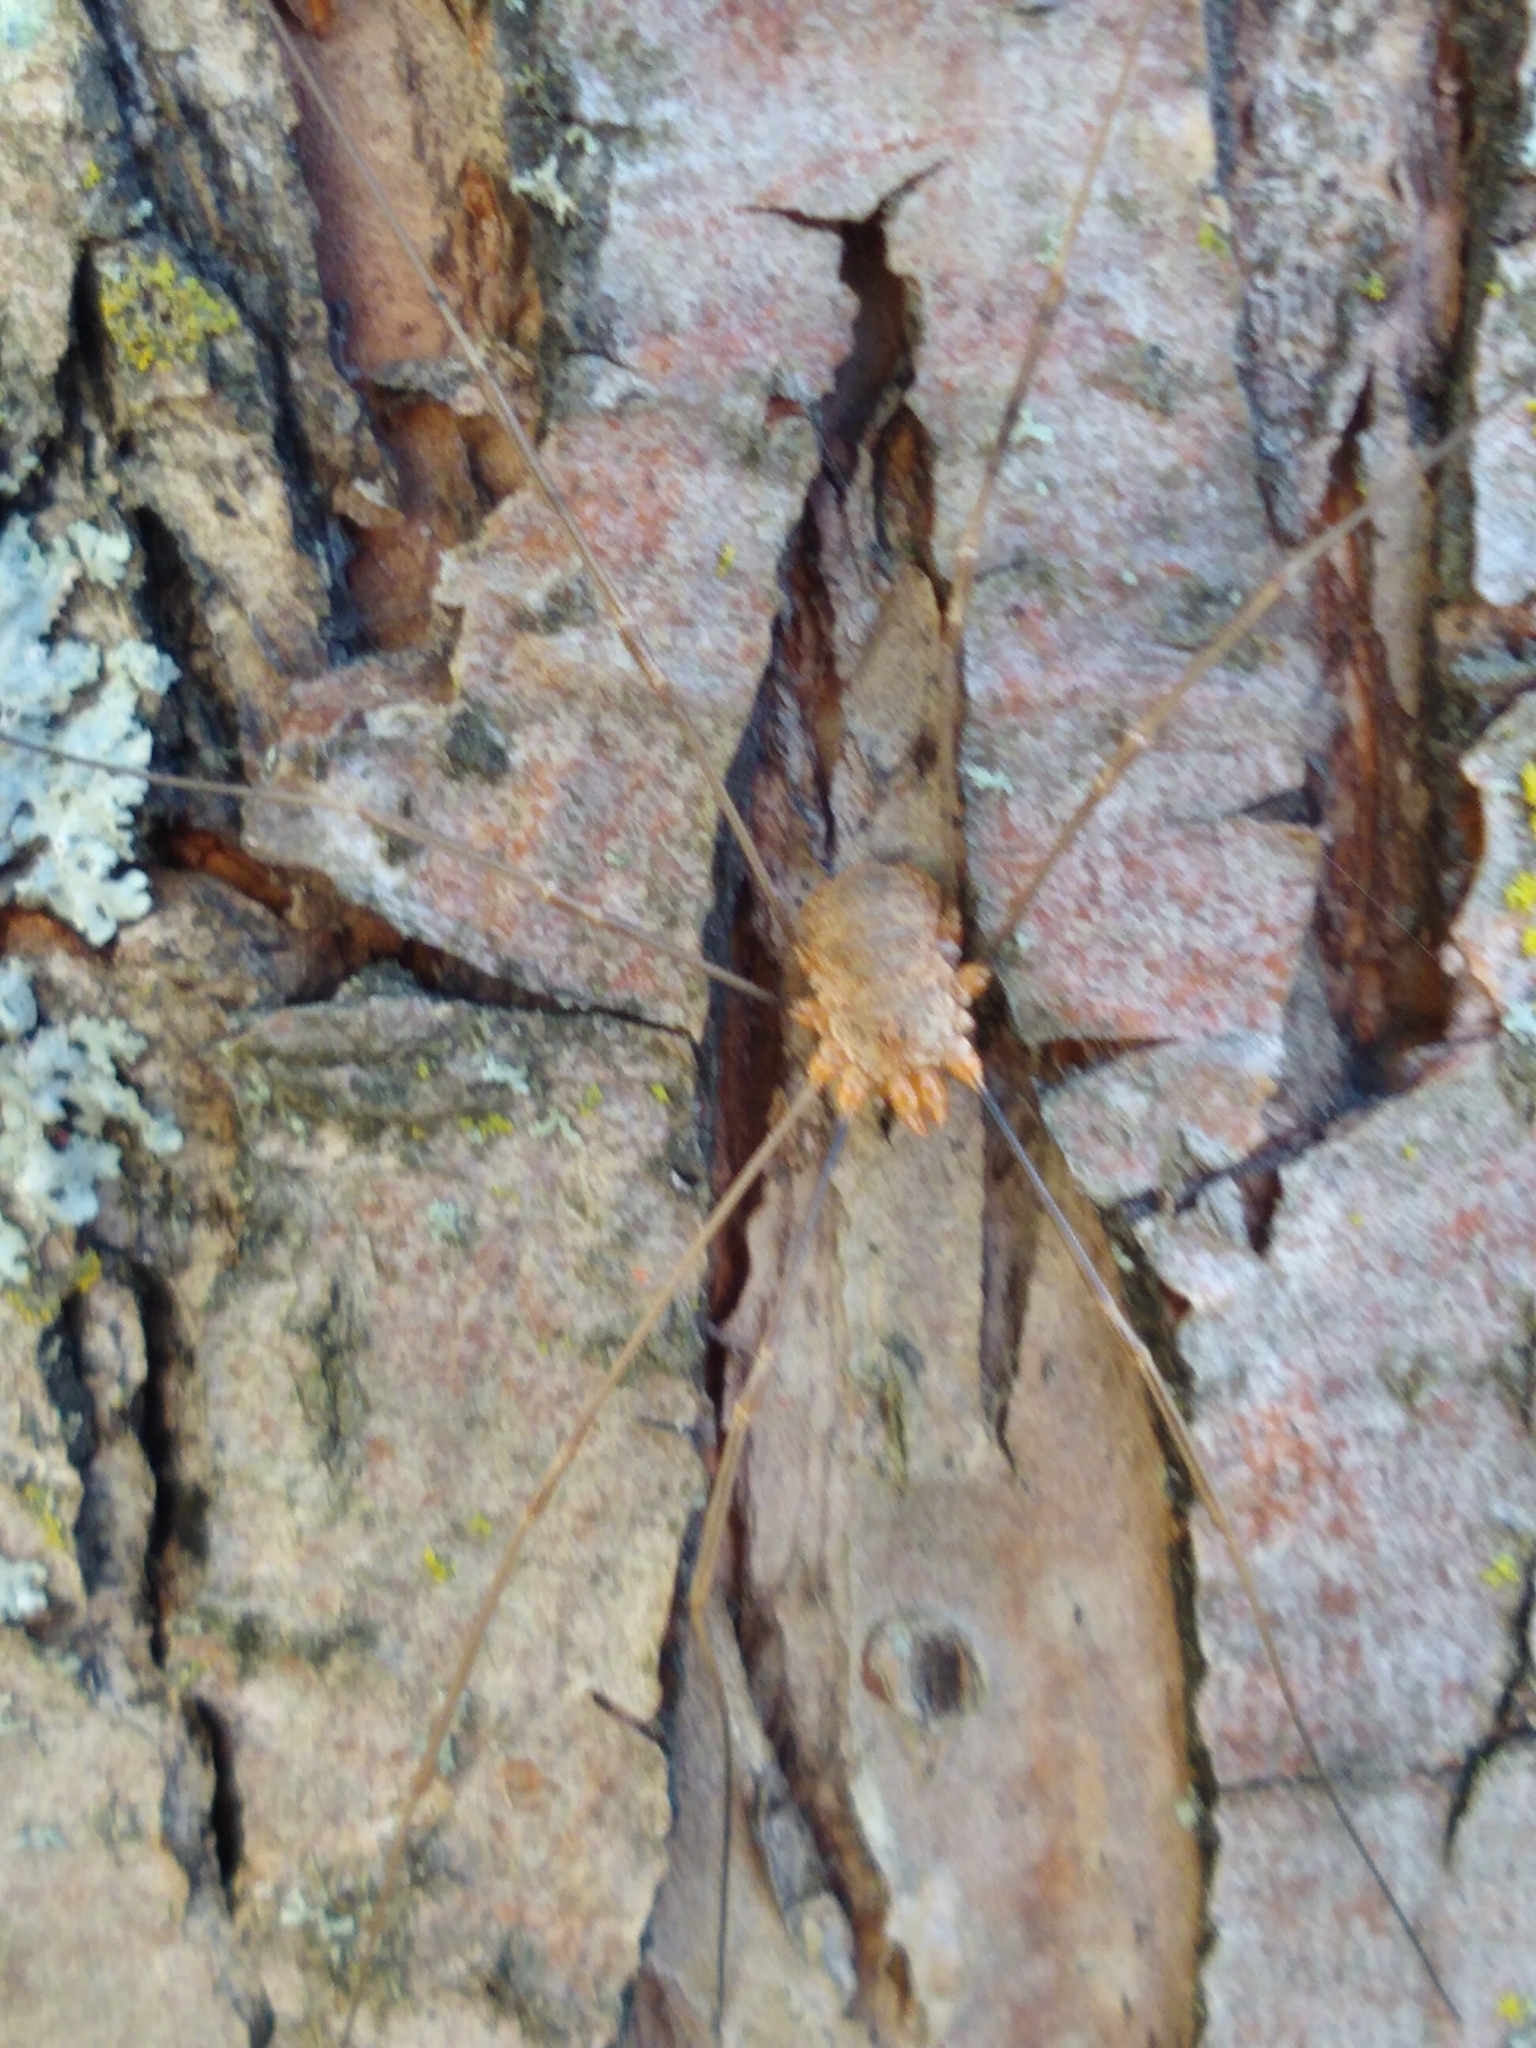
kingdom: Animalia
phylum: Arthropoda
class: Arachnida
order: Opiliones
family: Phalangiidae
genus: Phalangium
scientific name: Phalangium opilio
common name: Daddy longleg
